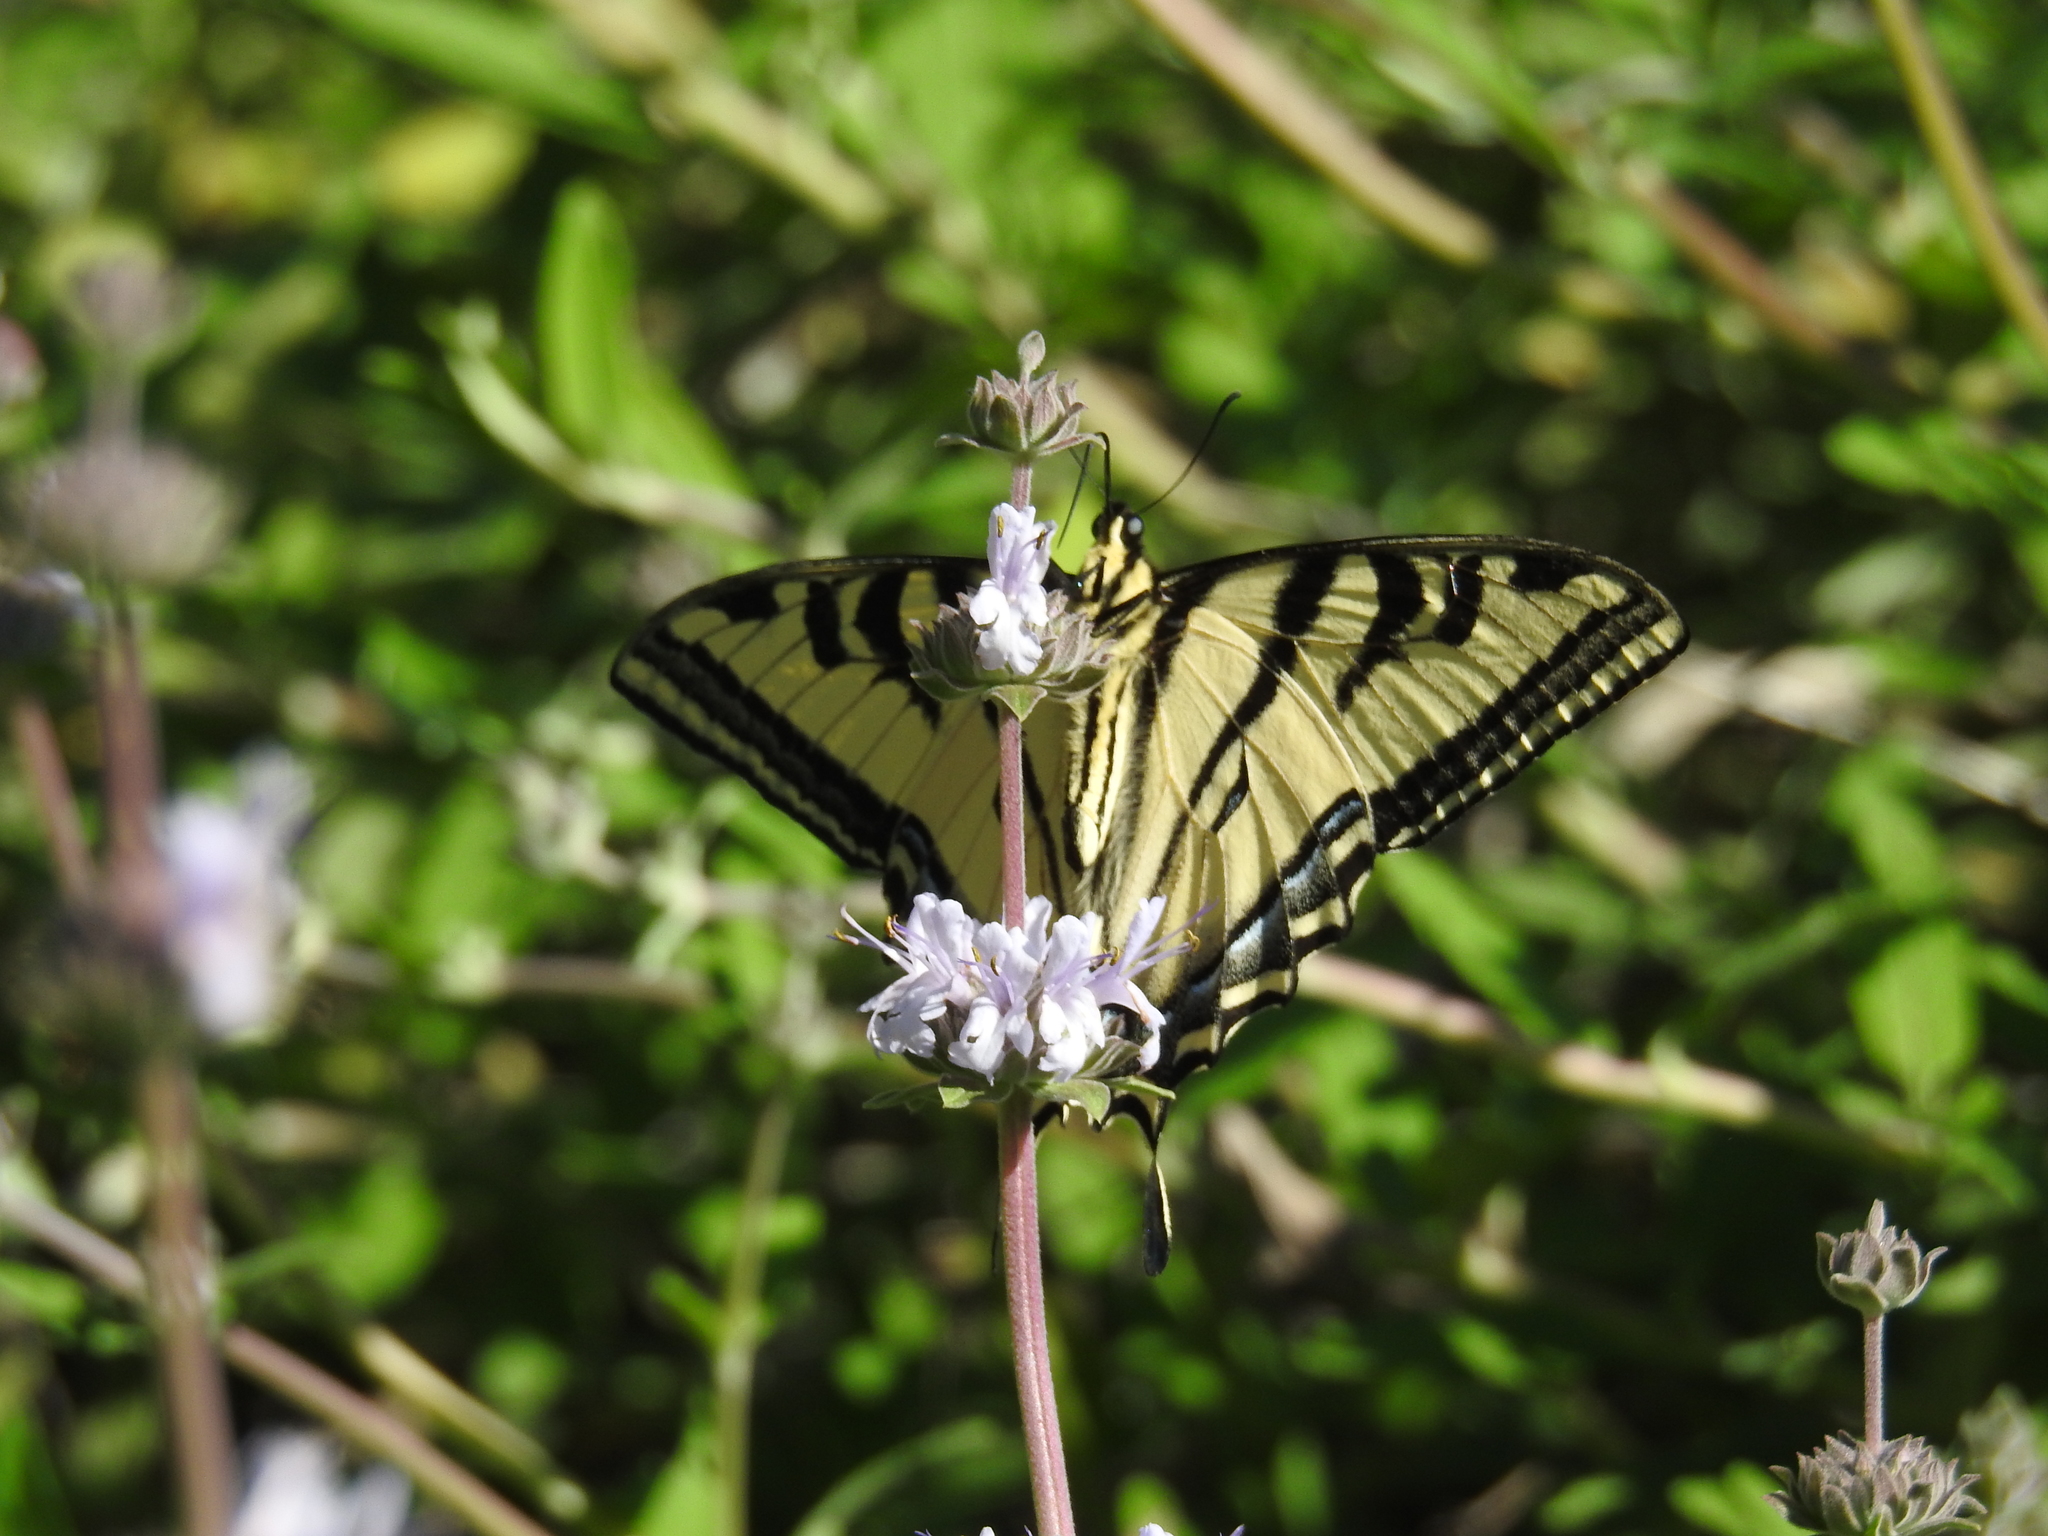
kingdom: Animalia
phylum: Arthropoda
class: Insecta
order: Lepidoptera
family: Papilionidae
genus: Papilio
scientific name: Papilio rutulus
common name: Western tiger swallowtail
